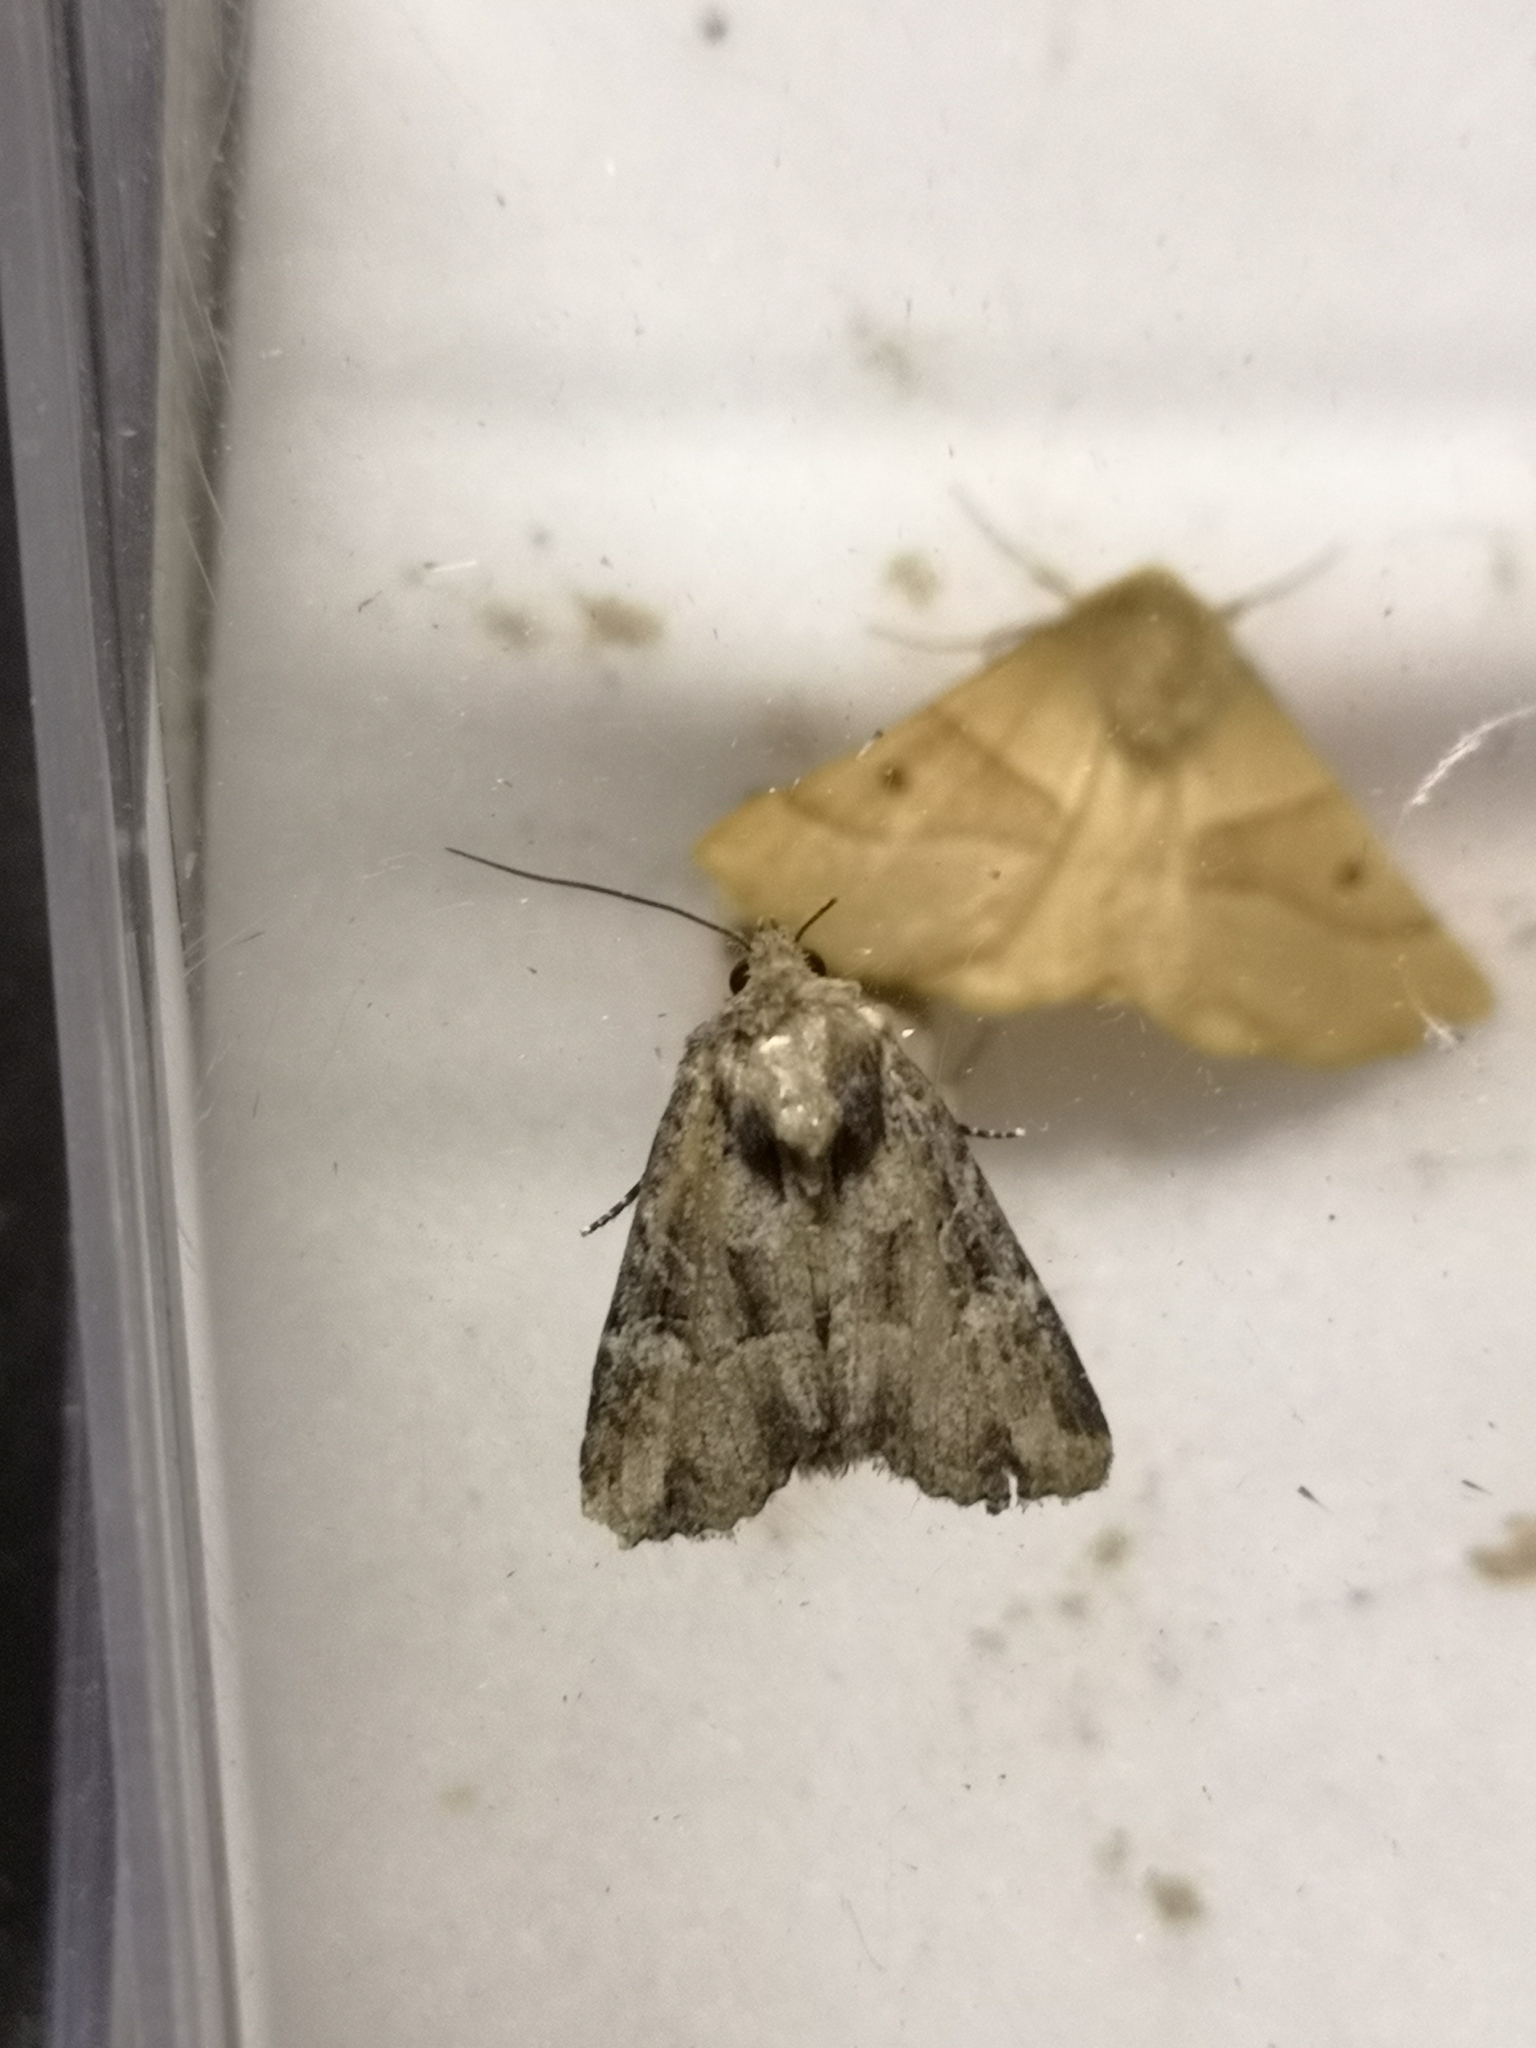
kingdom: Animalia
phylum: Arthropoda
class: Insecta
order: Lepidoptera
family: Noctuidae
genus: Mesapamea
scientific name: Mesapamea
